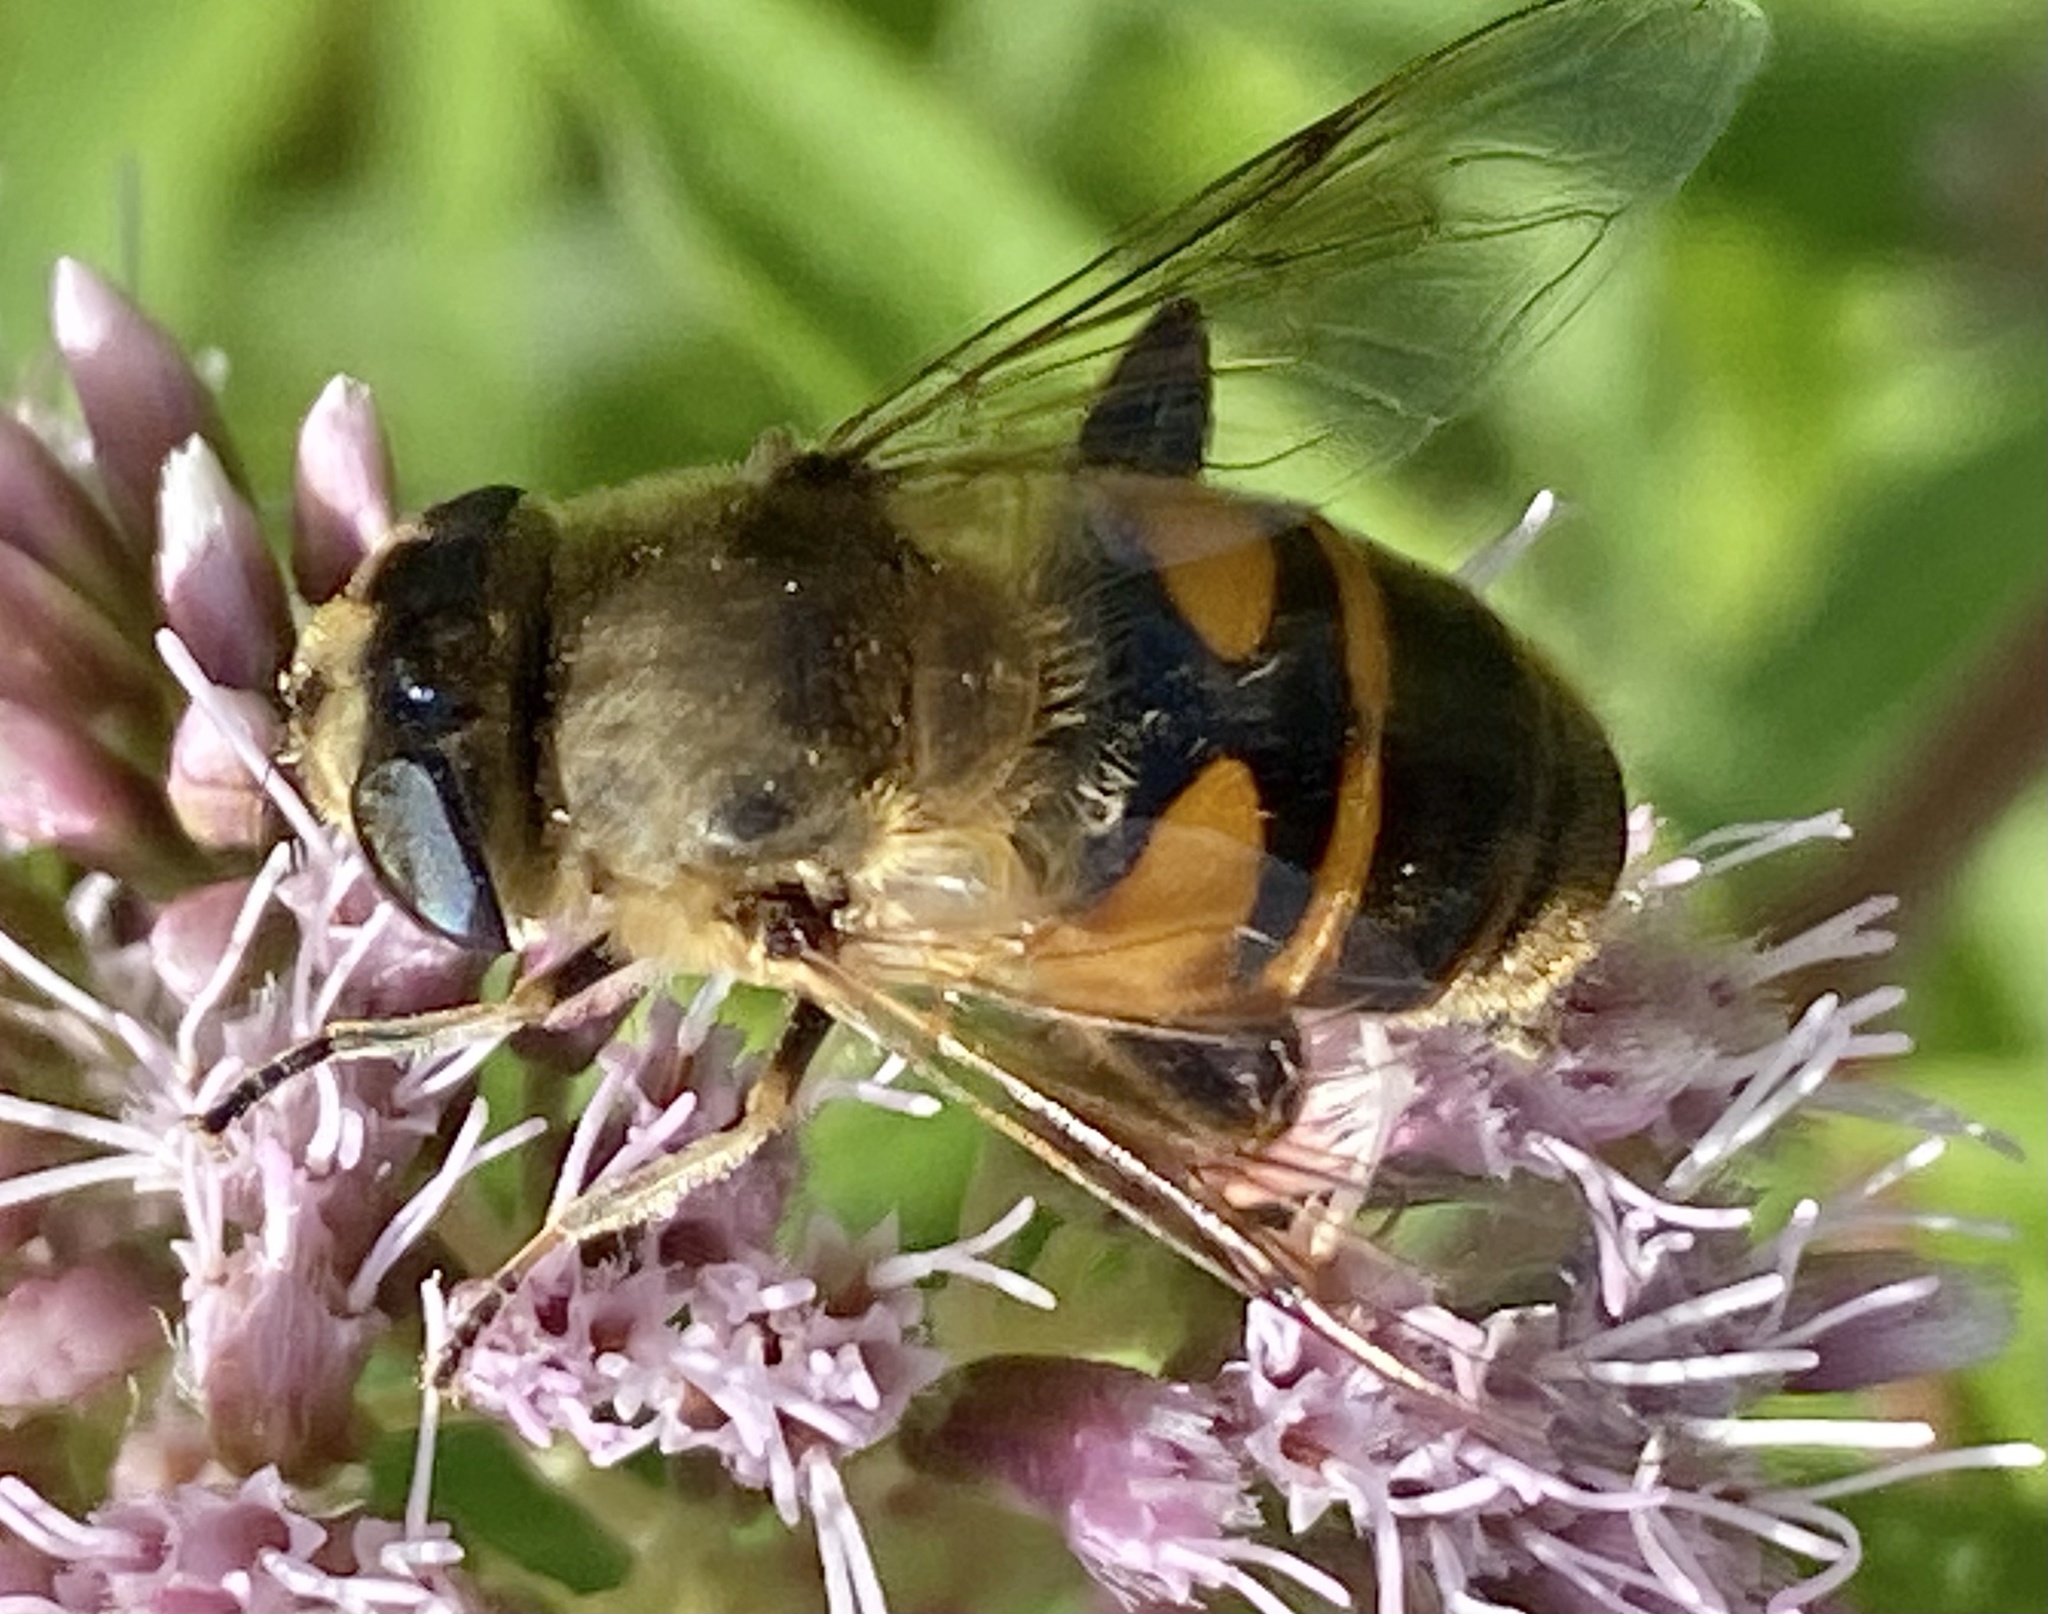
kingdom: Animalia
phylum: Arthropoda
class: Insecta
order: Diptera
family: Syrphidae
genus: Eristalis
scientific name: Eristalis tenax
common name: Drone fly
